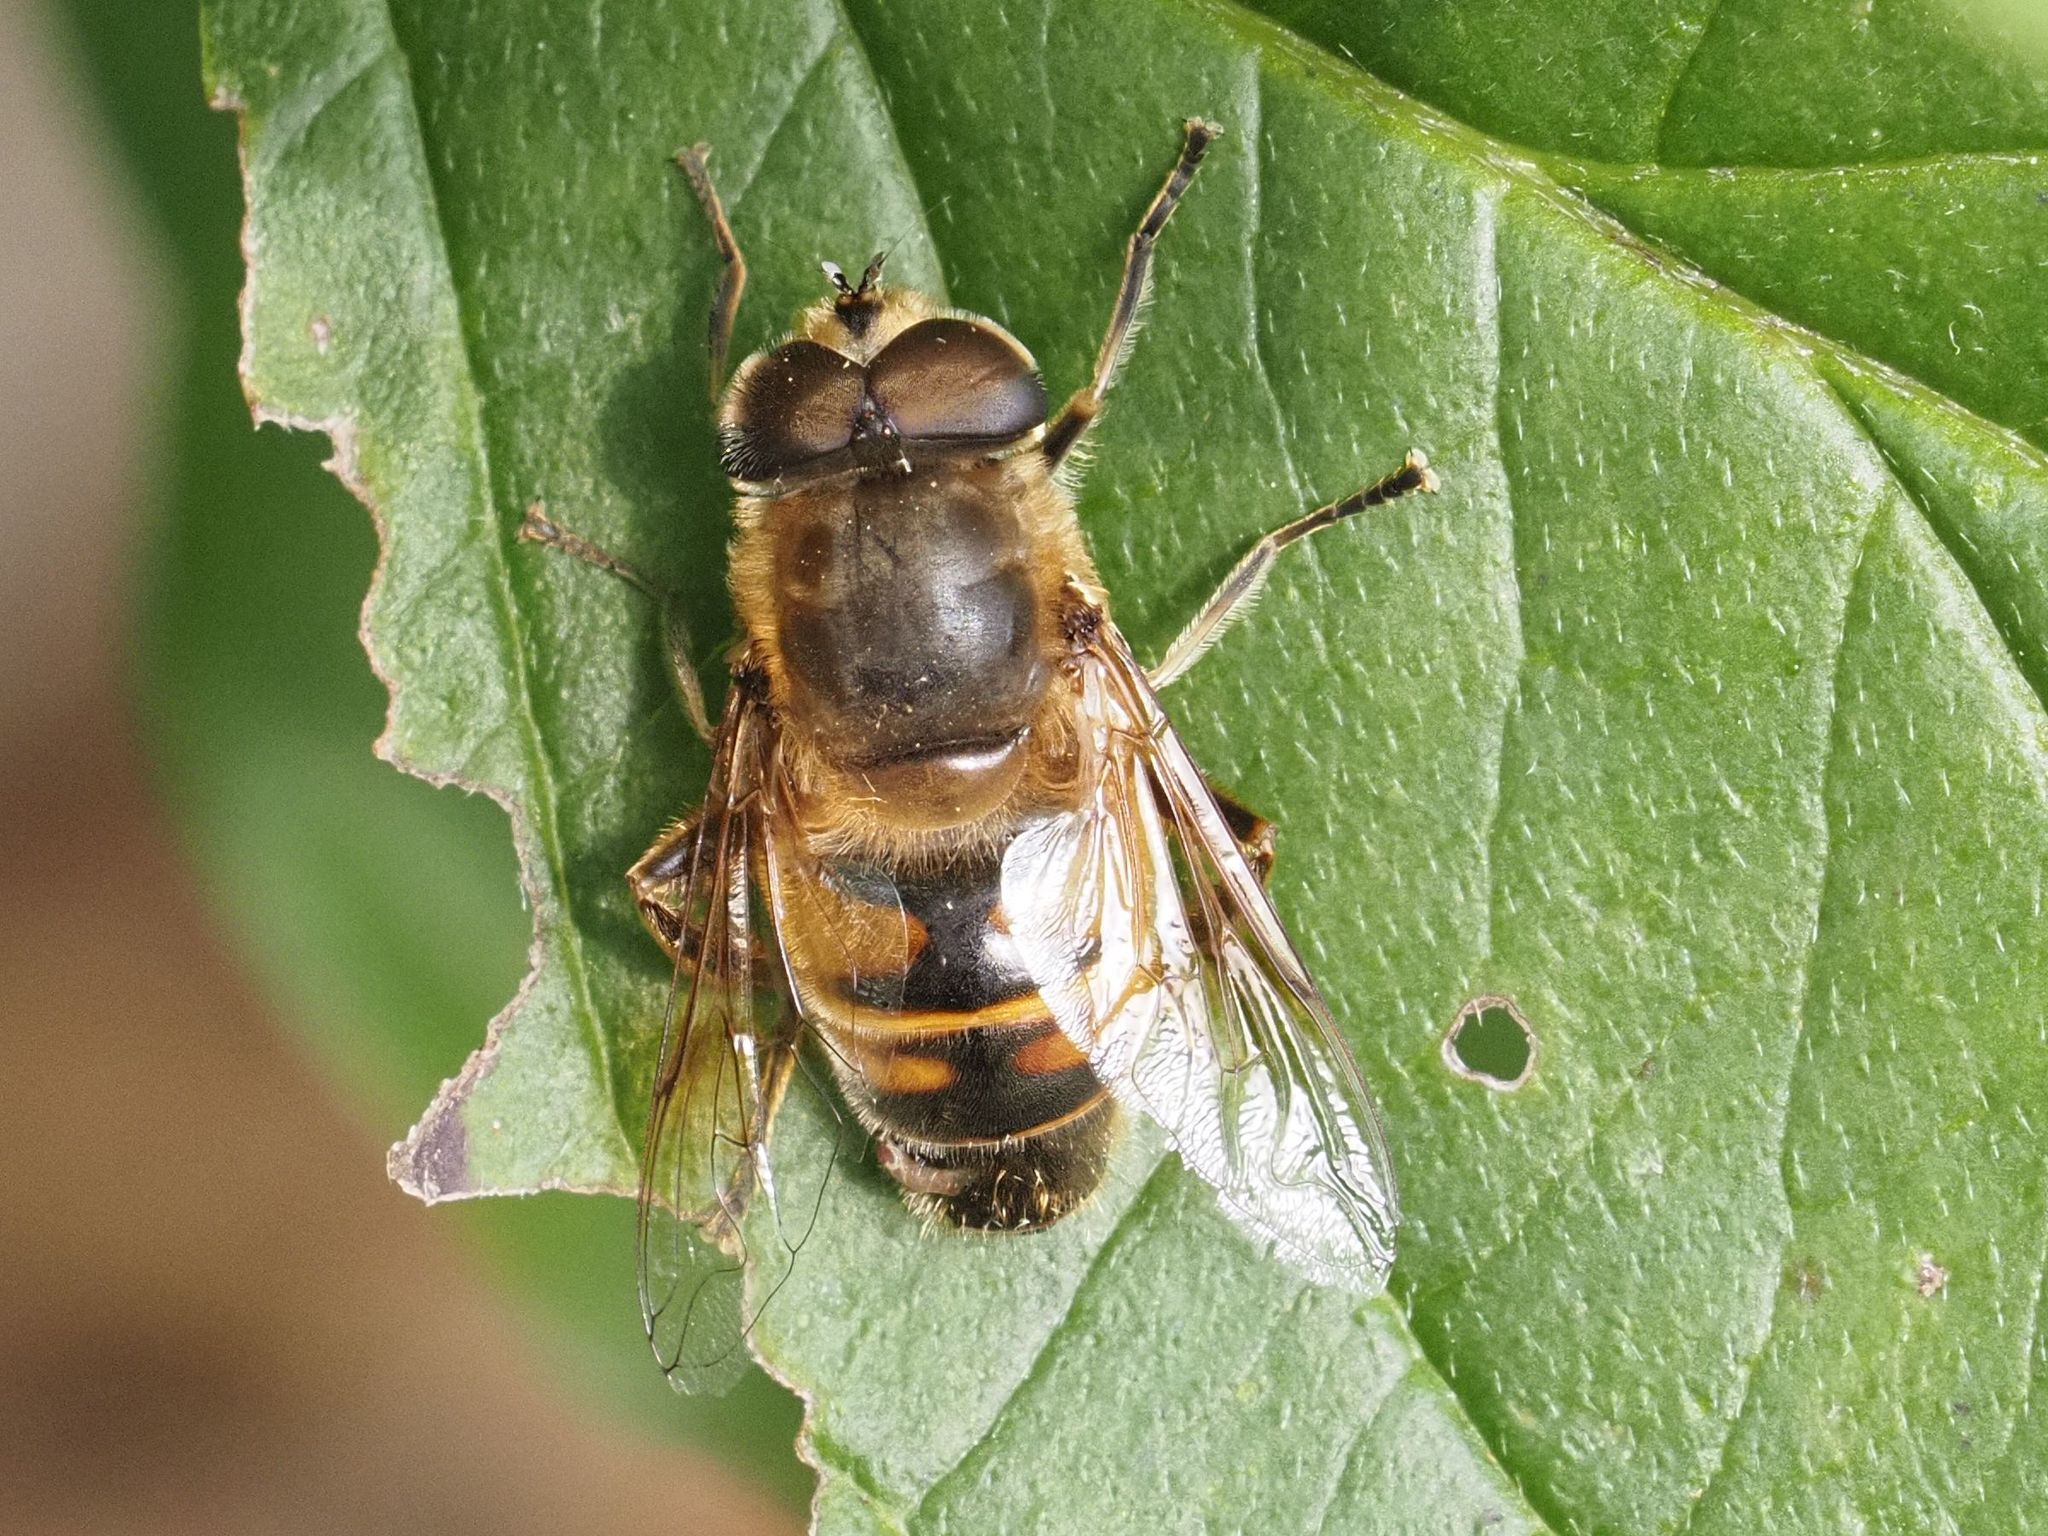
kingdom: Animalia
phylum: Arthropoda
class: Insecta
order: Diptera
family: Syrphidae
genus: Eristalis
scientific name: Eristalis tenax
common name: Drone fly
